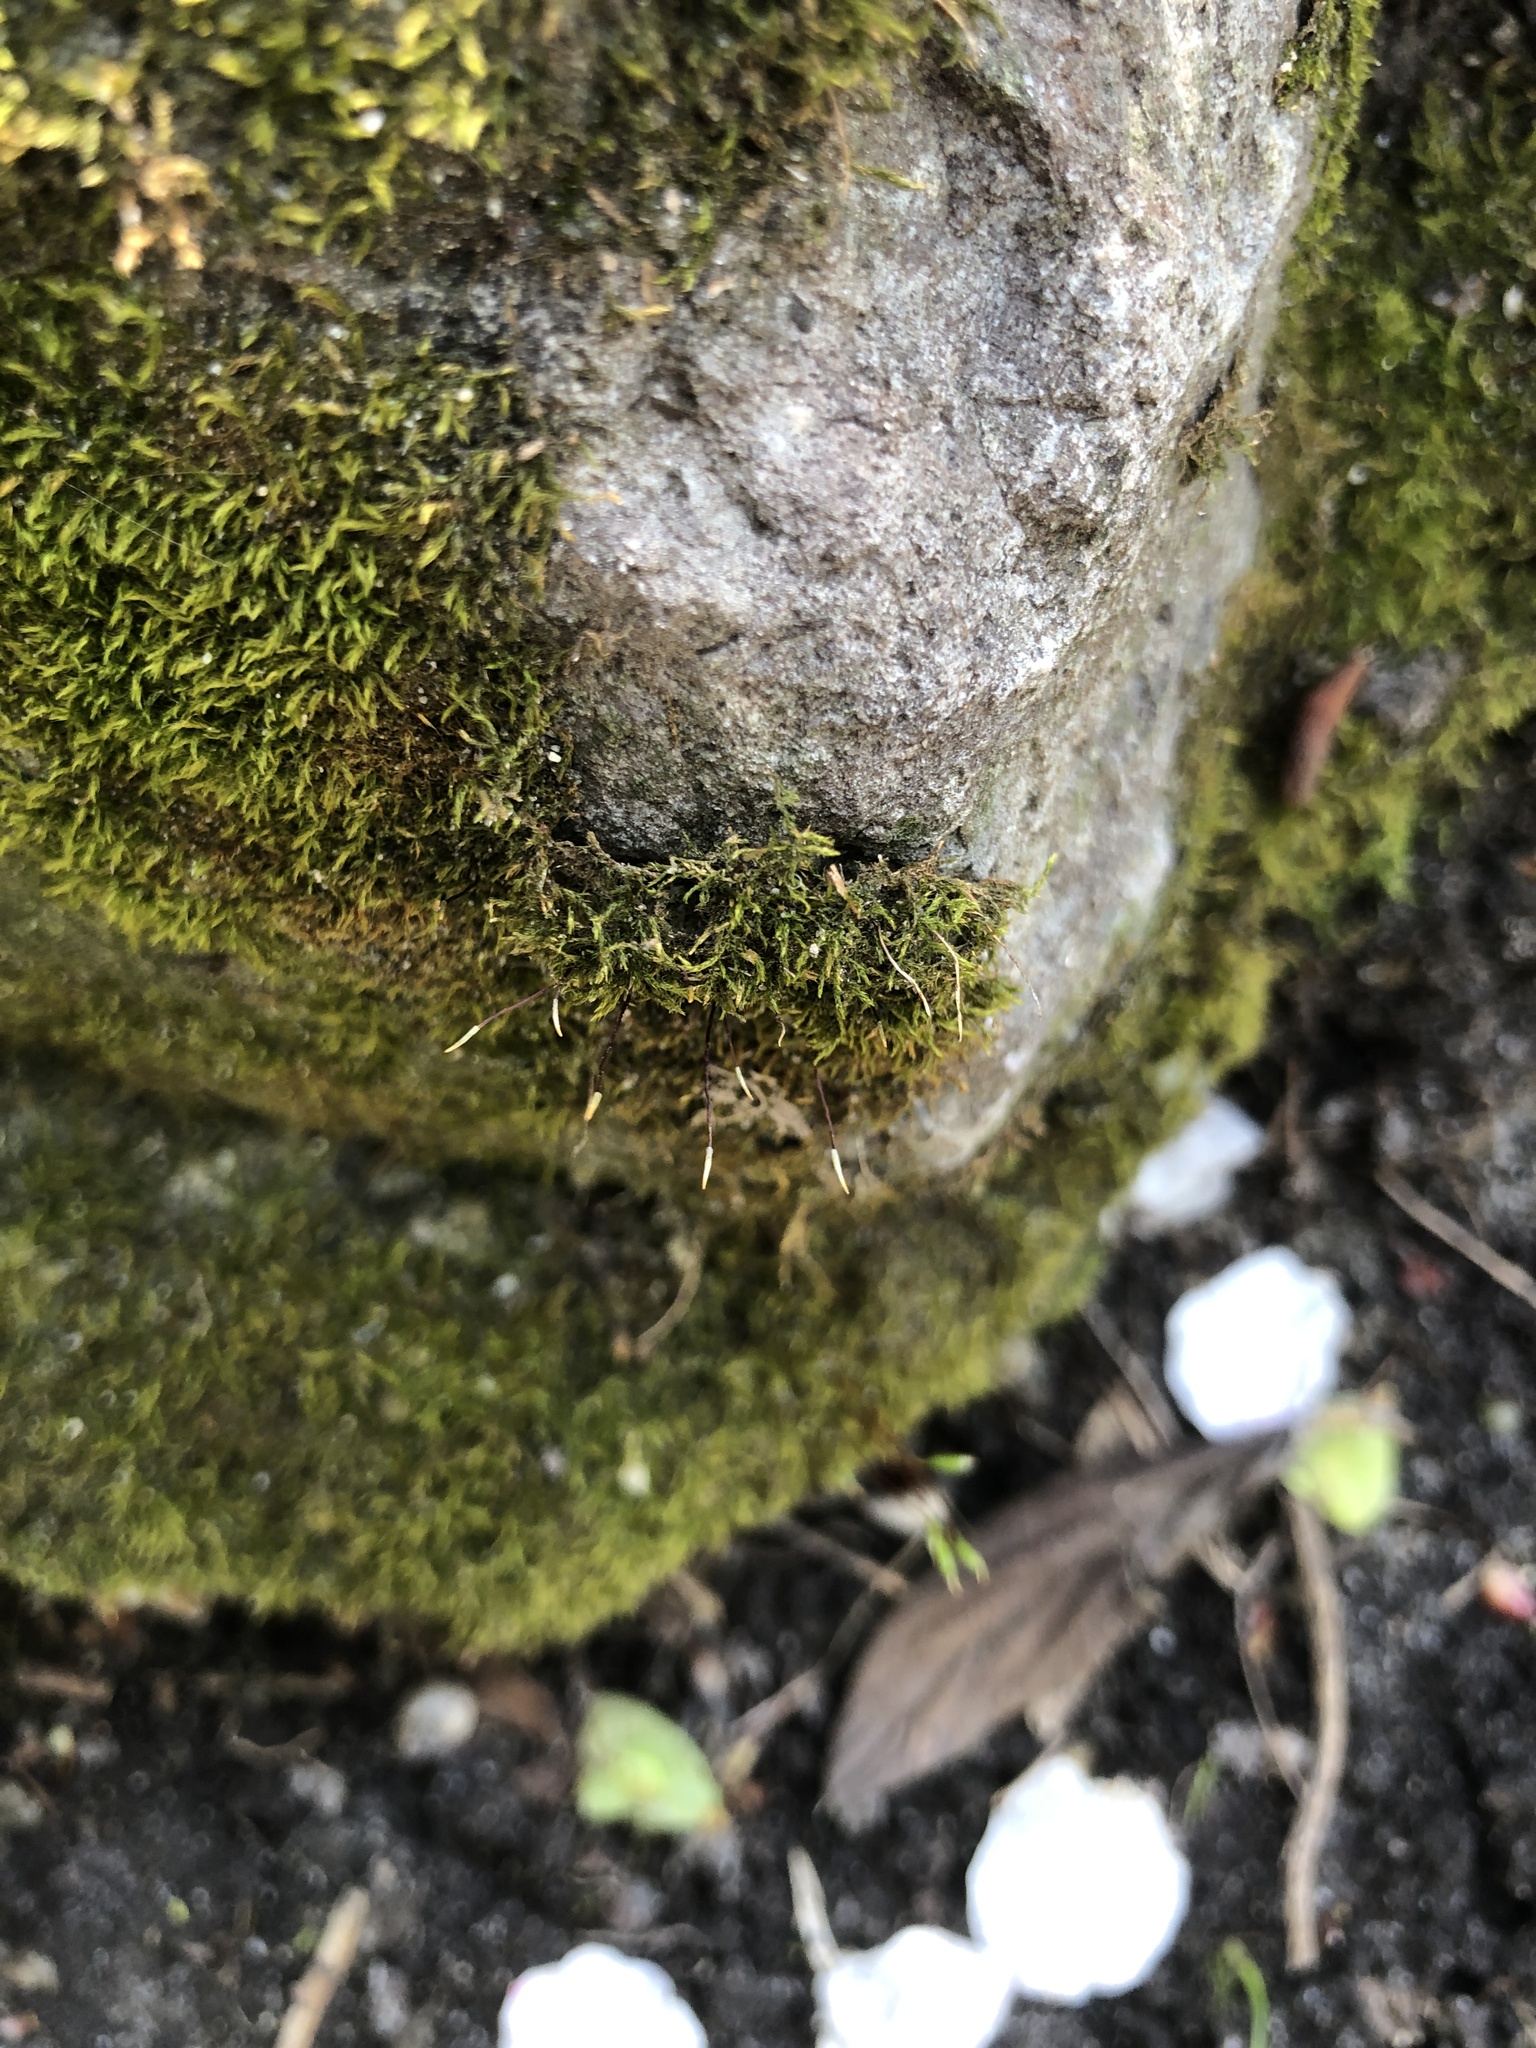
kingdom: Plantae
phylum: Bryophyta
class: Bryopsida
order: Hypnales
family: Amblystegiaceae
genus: Amblystegium
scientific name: Amblystegium serpens
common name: Jurkatzka's feather moss
